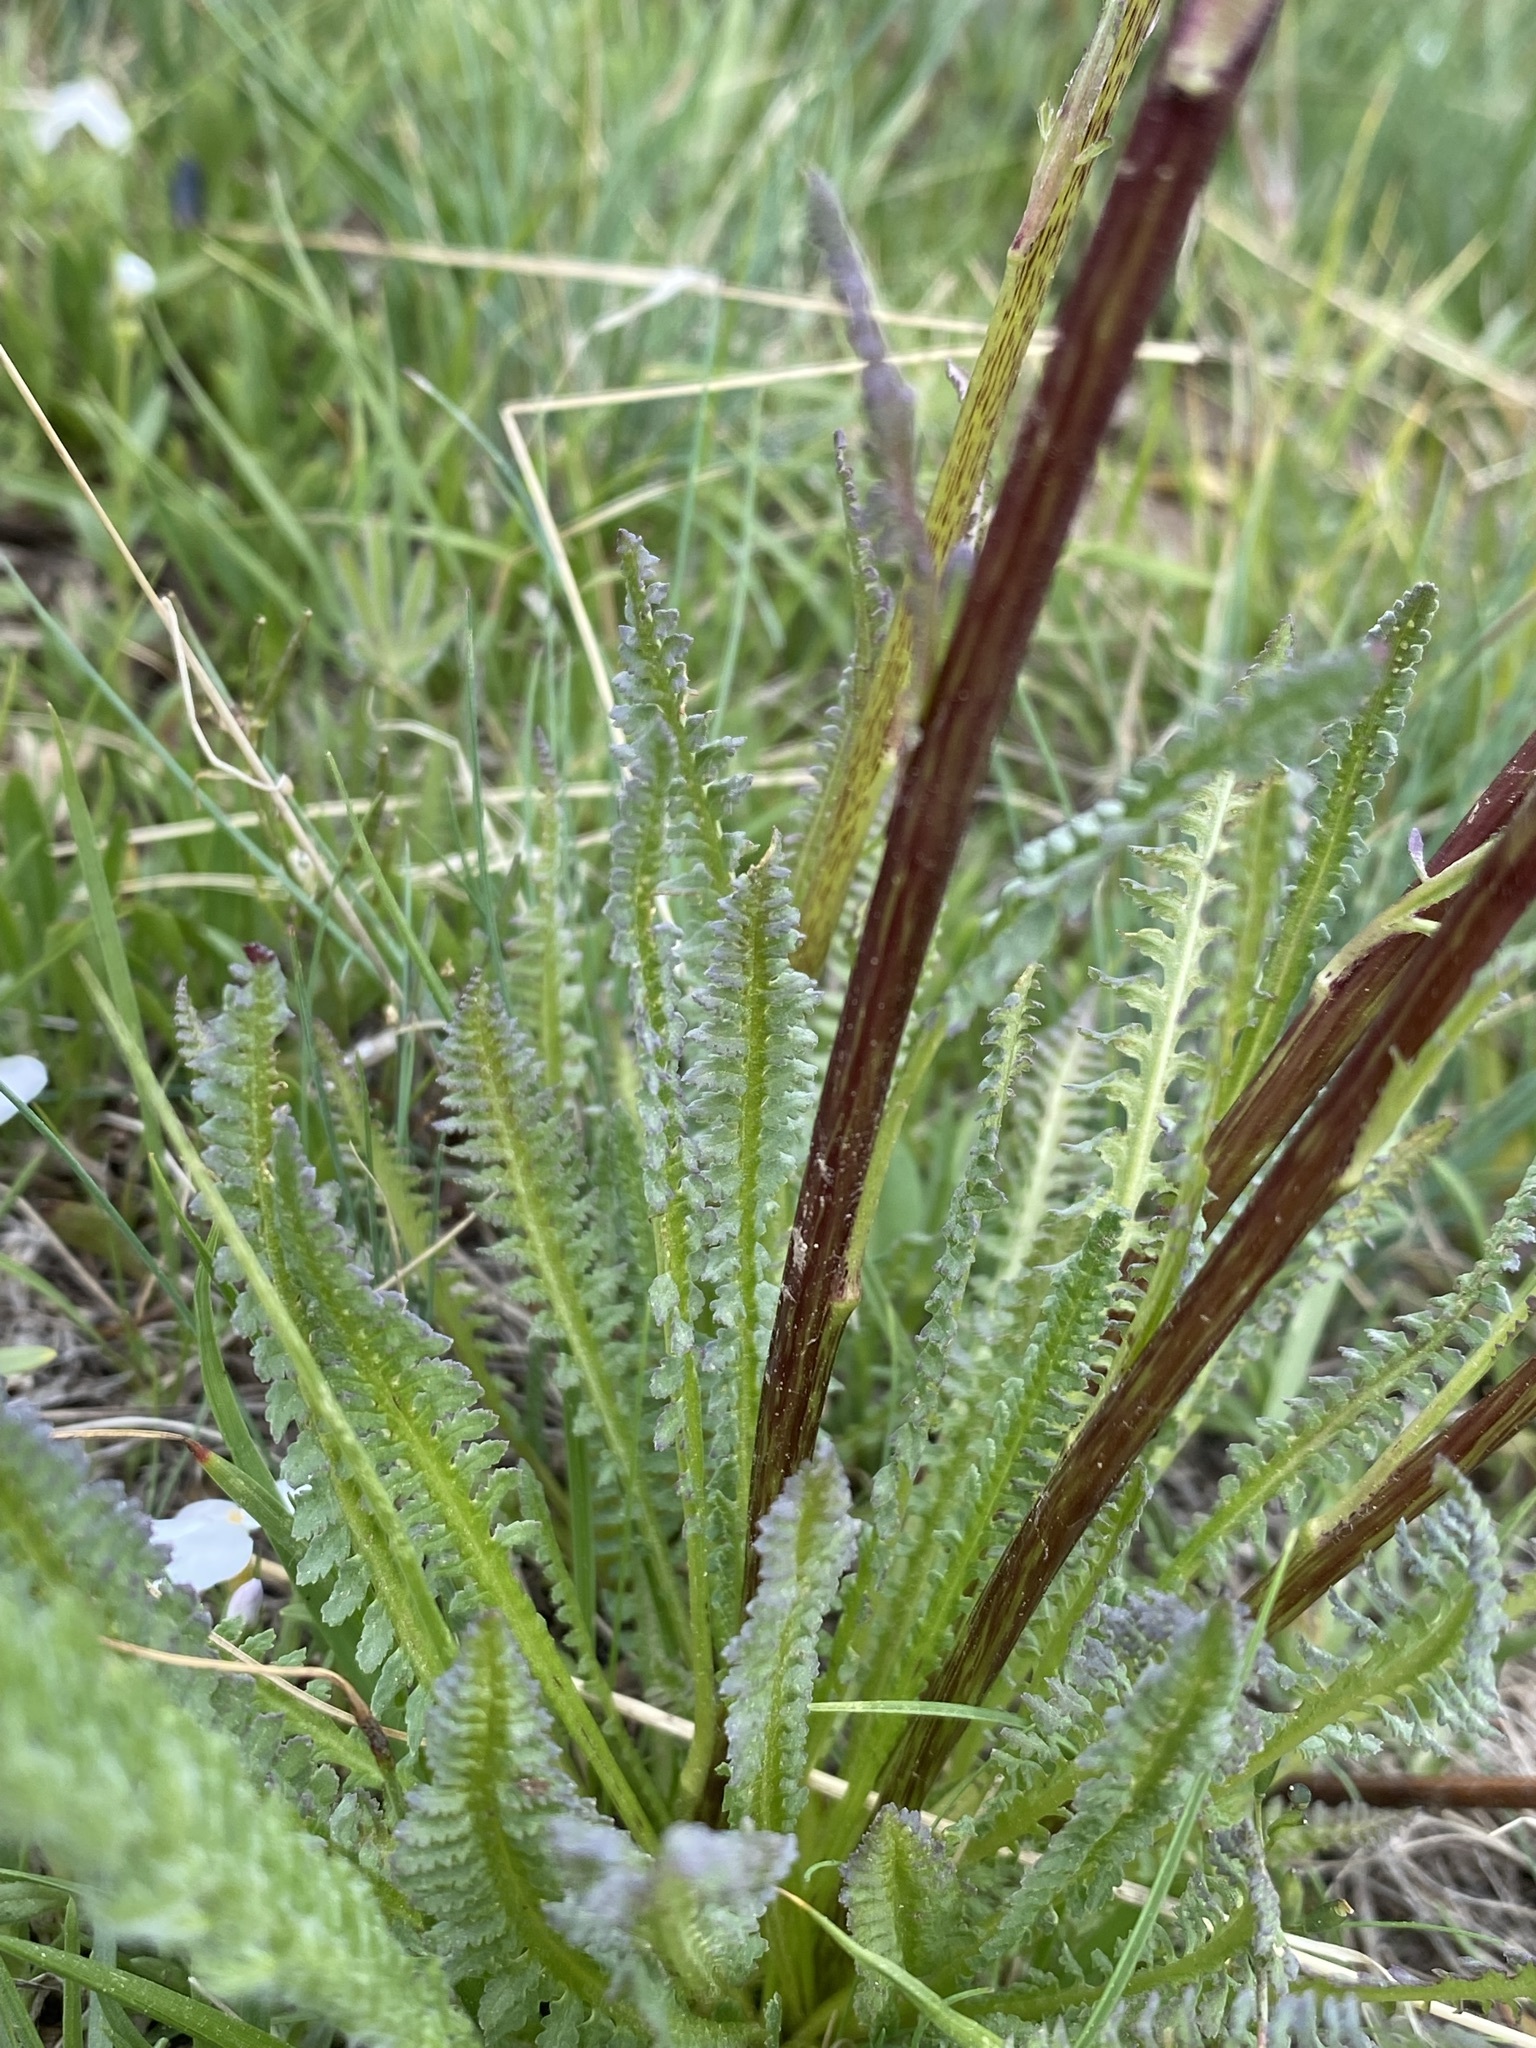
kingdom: Plantae
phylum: Tracheophyta
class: Magnoliopsida
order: Lamiales
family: Orobanchaceae
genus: Pedicularis
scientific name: Pedicularis parryi
